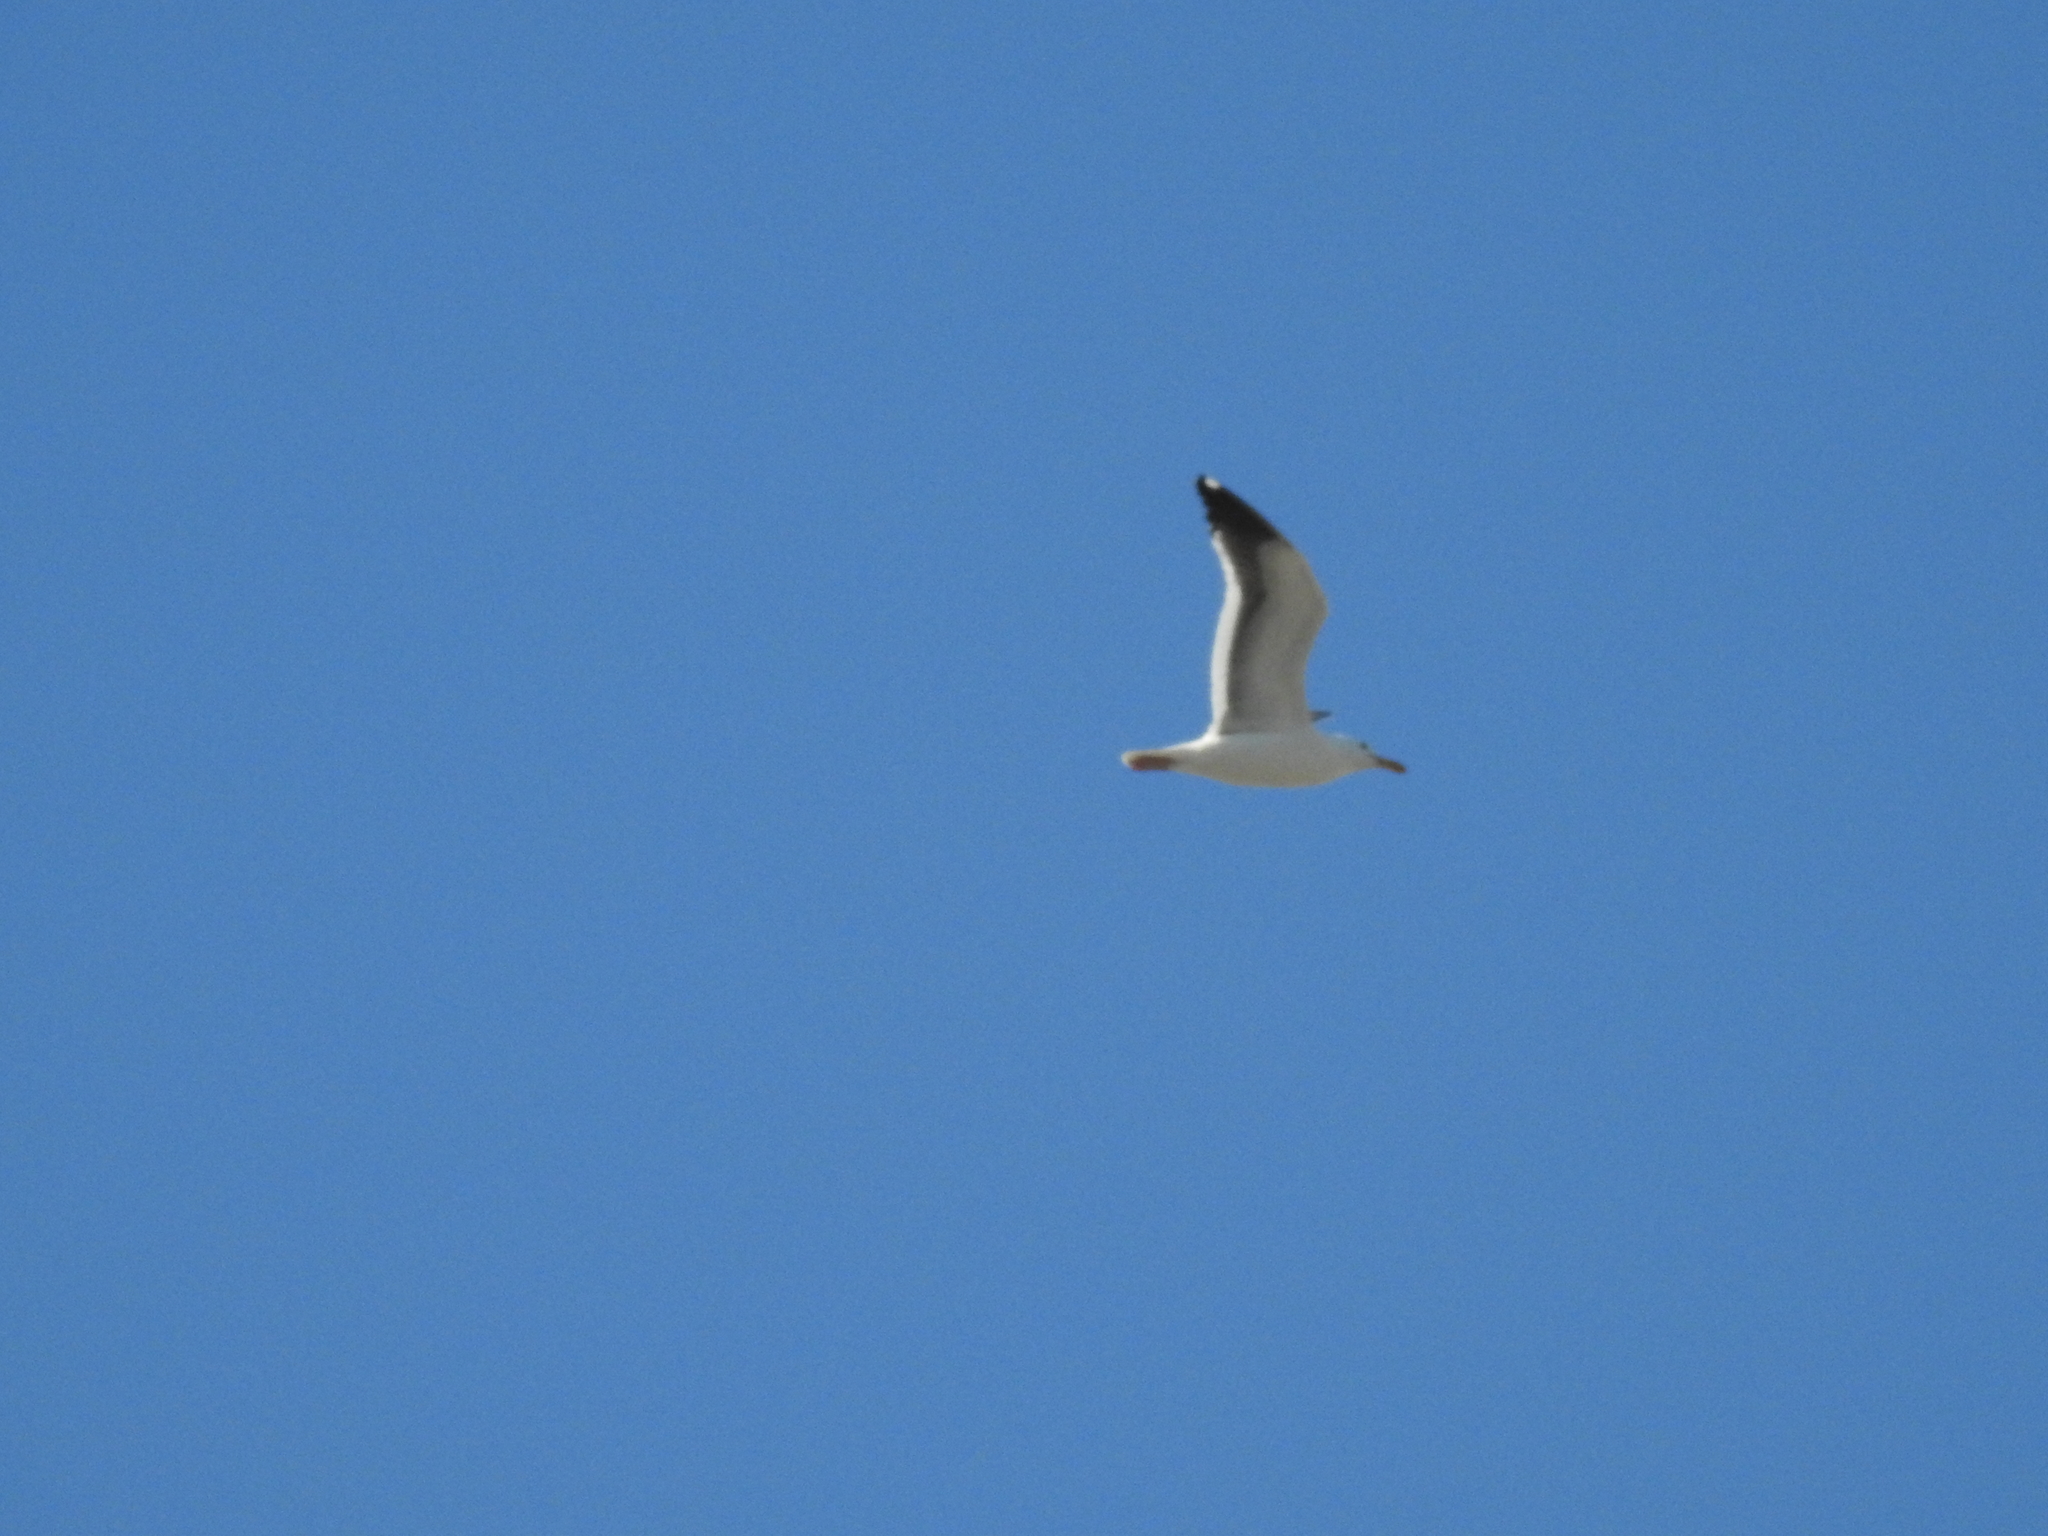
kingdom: Animalia
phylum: Chordata
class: Aves
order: Charadriiformes
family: Laridae
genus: Larus
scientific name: Larus occidentalis
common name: Western gull
